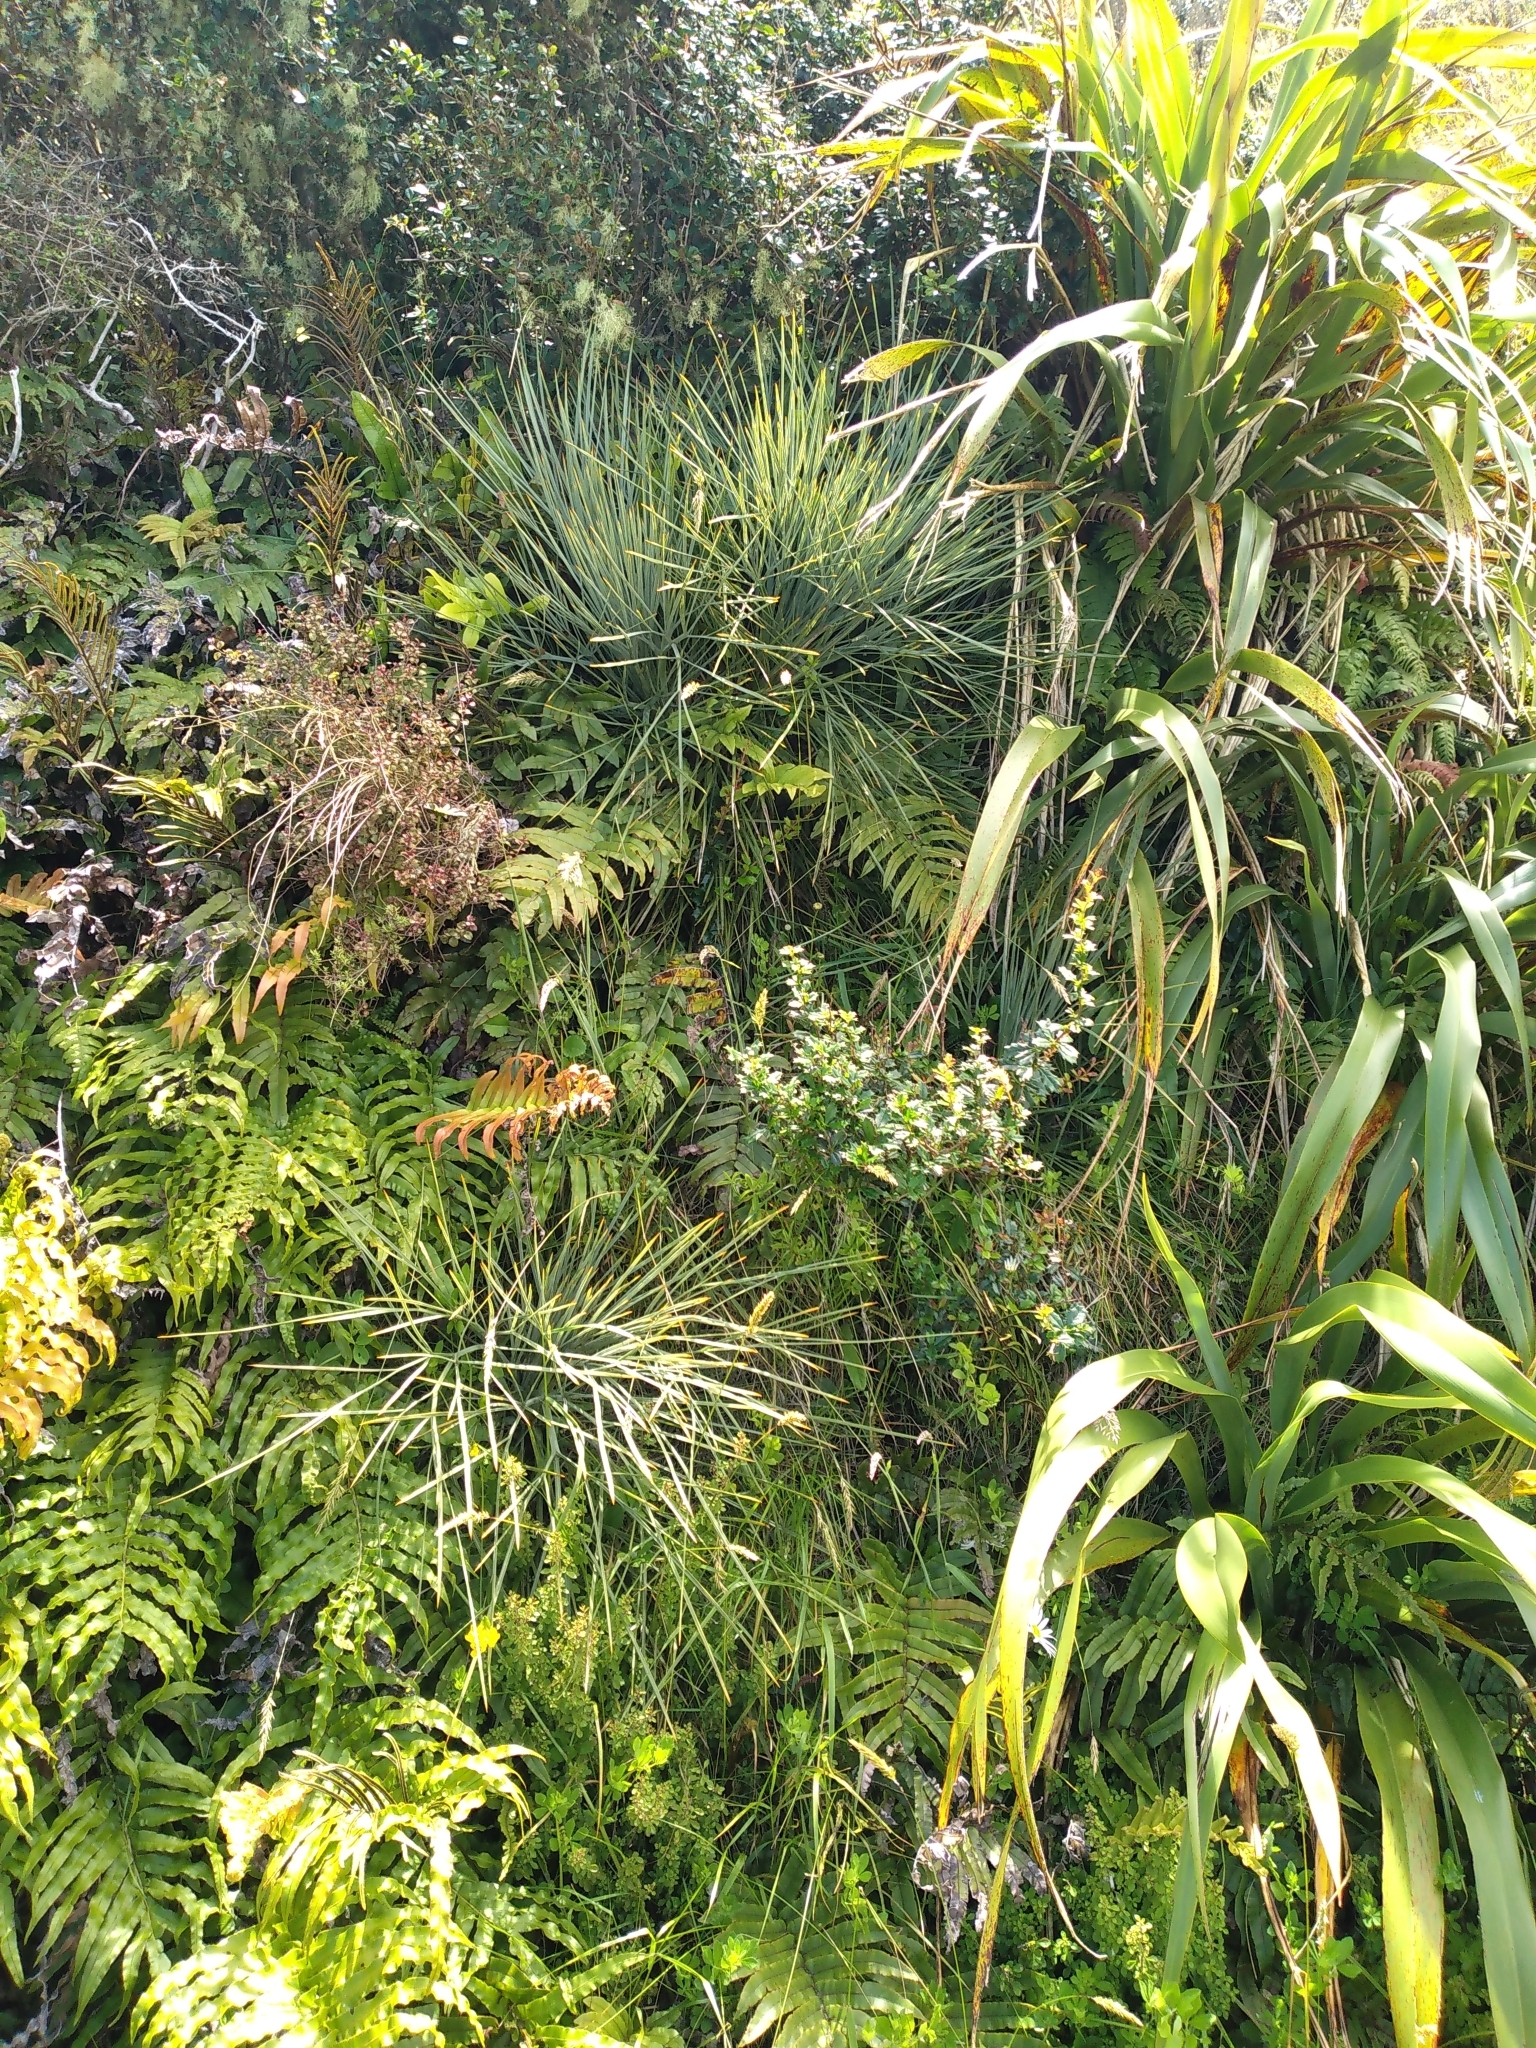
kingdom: Plantae
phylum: Tracheophyta
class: Magnoliopsida
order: Apiales
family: Apiaceae
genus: Aciphylla
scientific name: Aciphylla squarrosa
